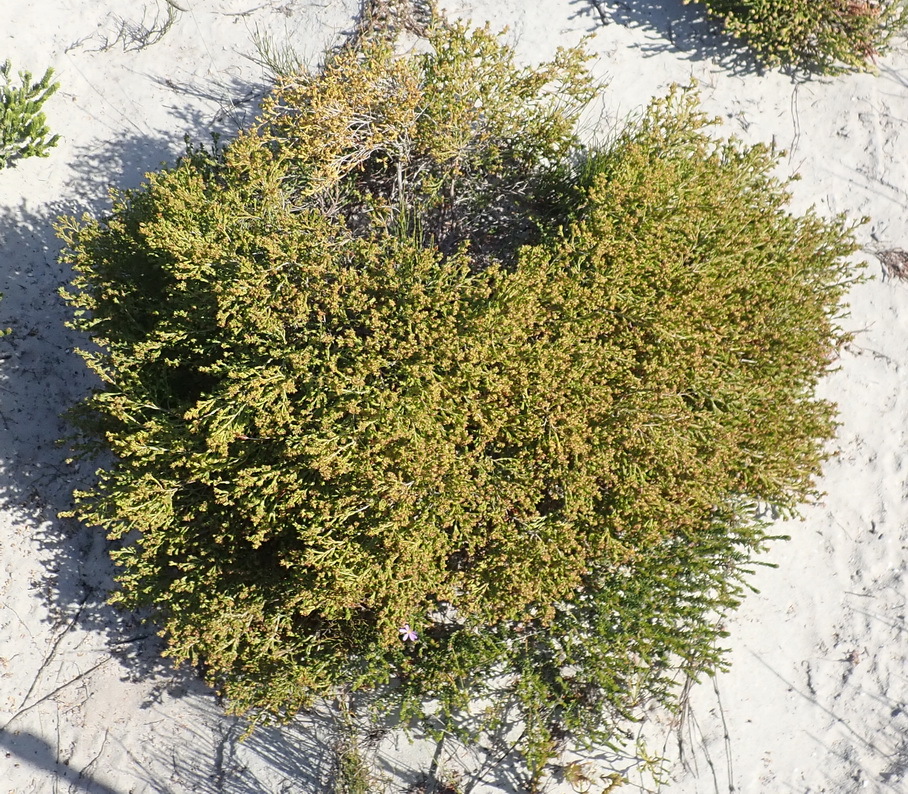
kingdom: Plantae
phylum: Tracheophyta
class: Magnoliopsida
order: Ericales
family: Ericaceae
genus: Erica
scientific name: Erica axillaris
